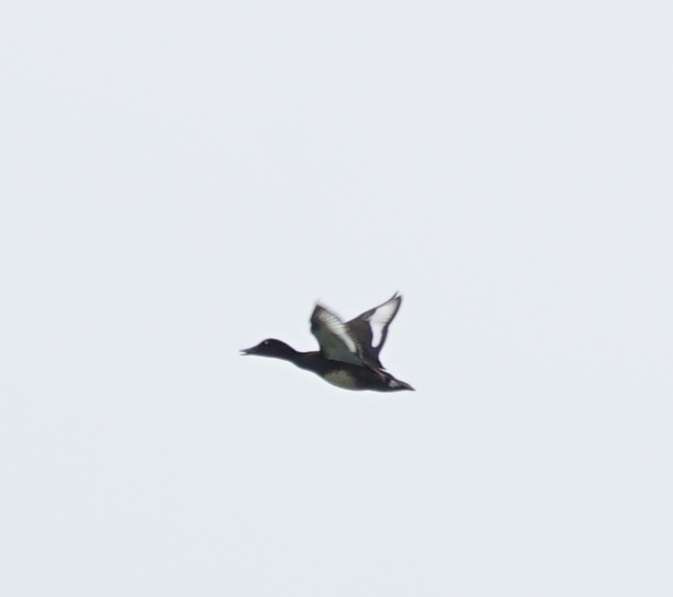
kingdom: Animalia
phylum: Chordata
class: Aves
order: Anseriformes
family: Anatidae
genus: Aythya
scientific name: Aythya nyroca
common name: Ferruginous duck
